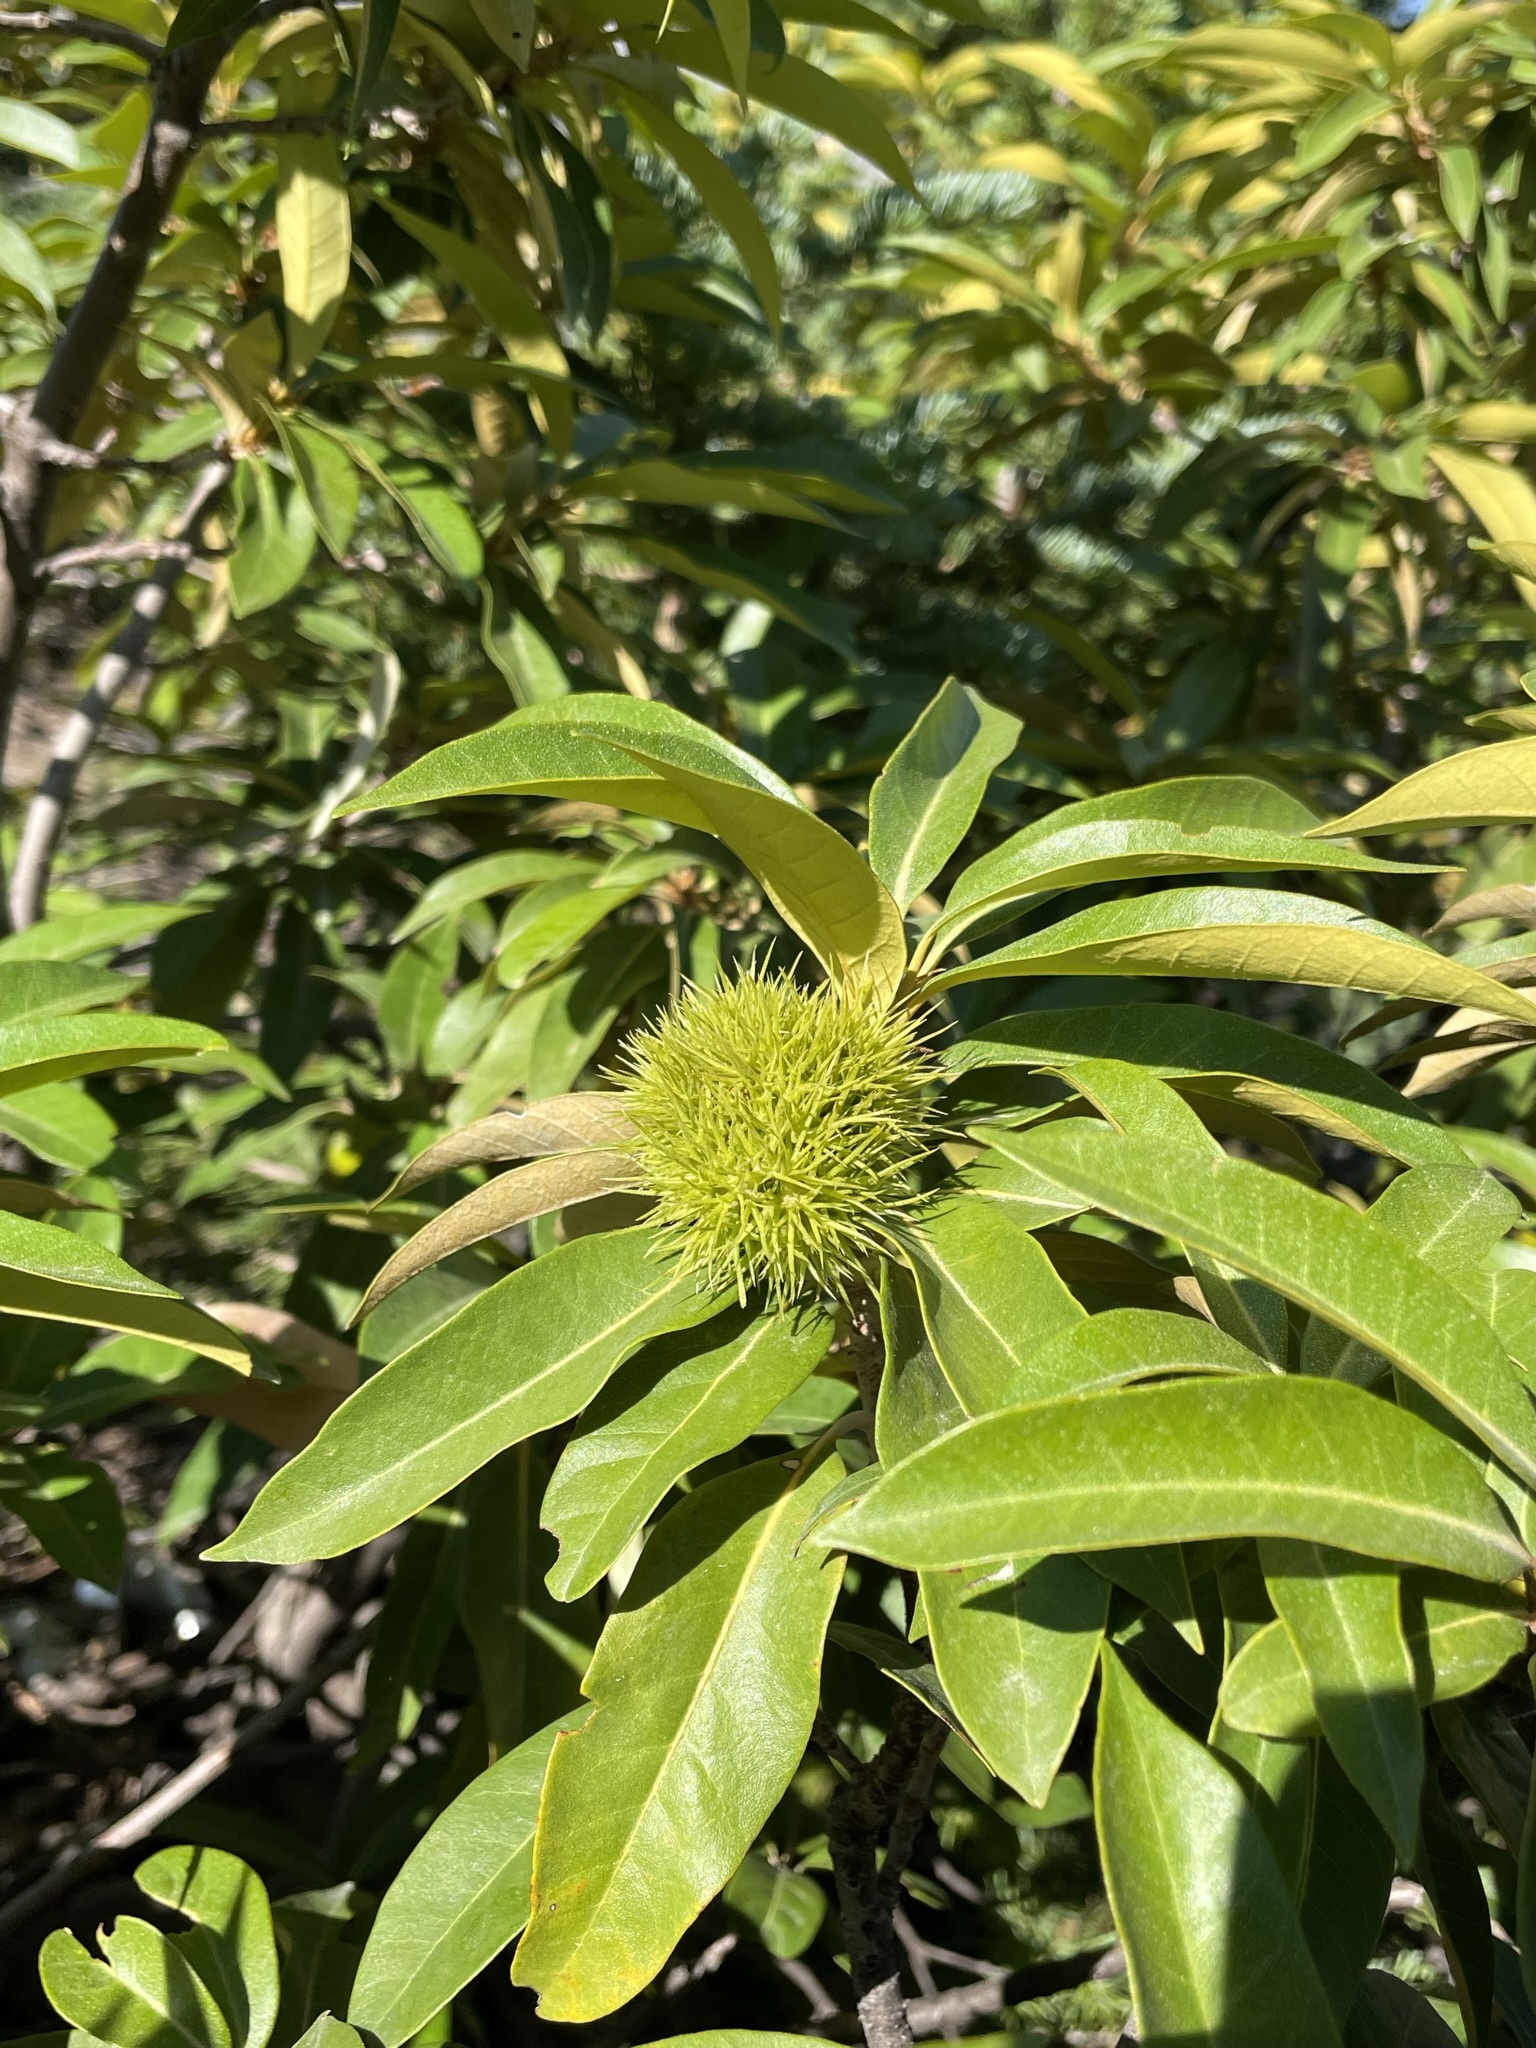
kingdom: Plantae
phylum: Tracheophyta
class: Magnoliopsida
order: Fagales
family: Fagaceae
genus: Chrysolepis
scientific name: Chrysolepis chrysophylla
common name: Giant chinquapin
